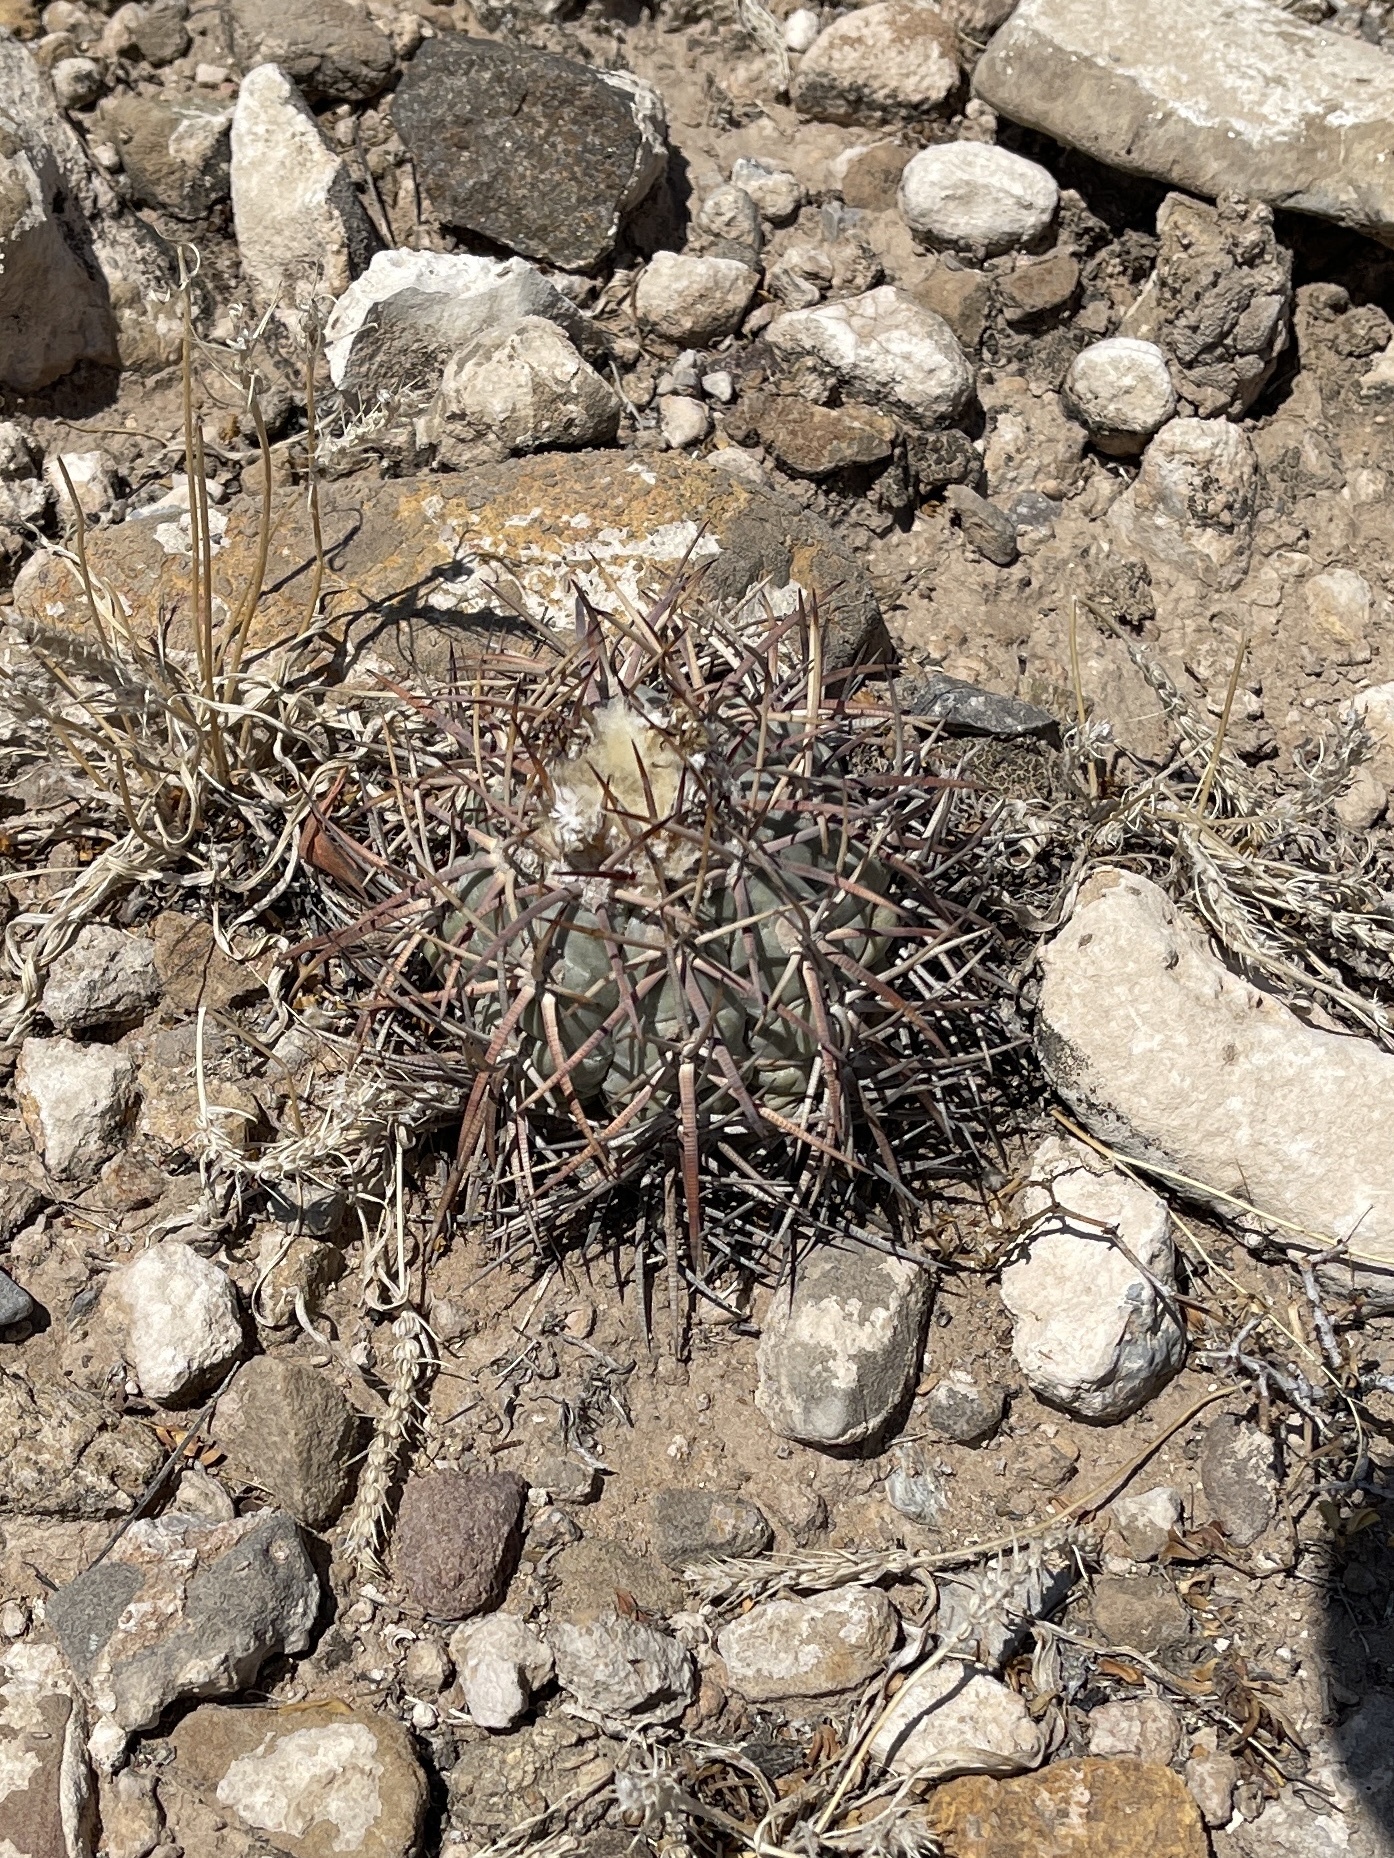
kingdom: Plantae
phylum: Tracheophyta
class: Magnoliopsida
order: Caryophyllales
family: Cactaceae
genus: Echinocactus
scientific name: Echinocactus horizonthalonius
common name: Devilshead
